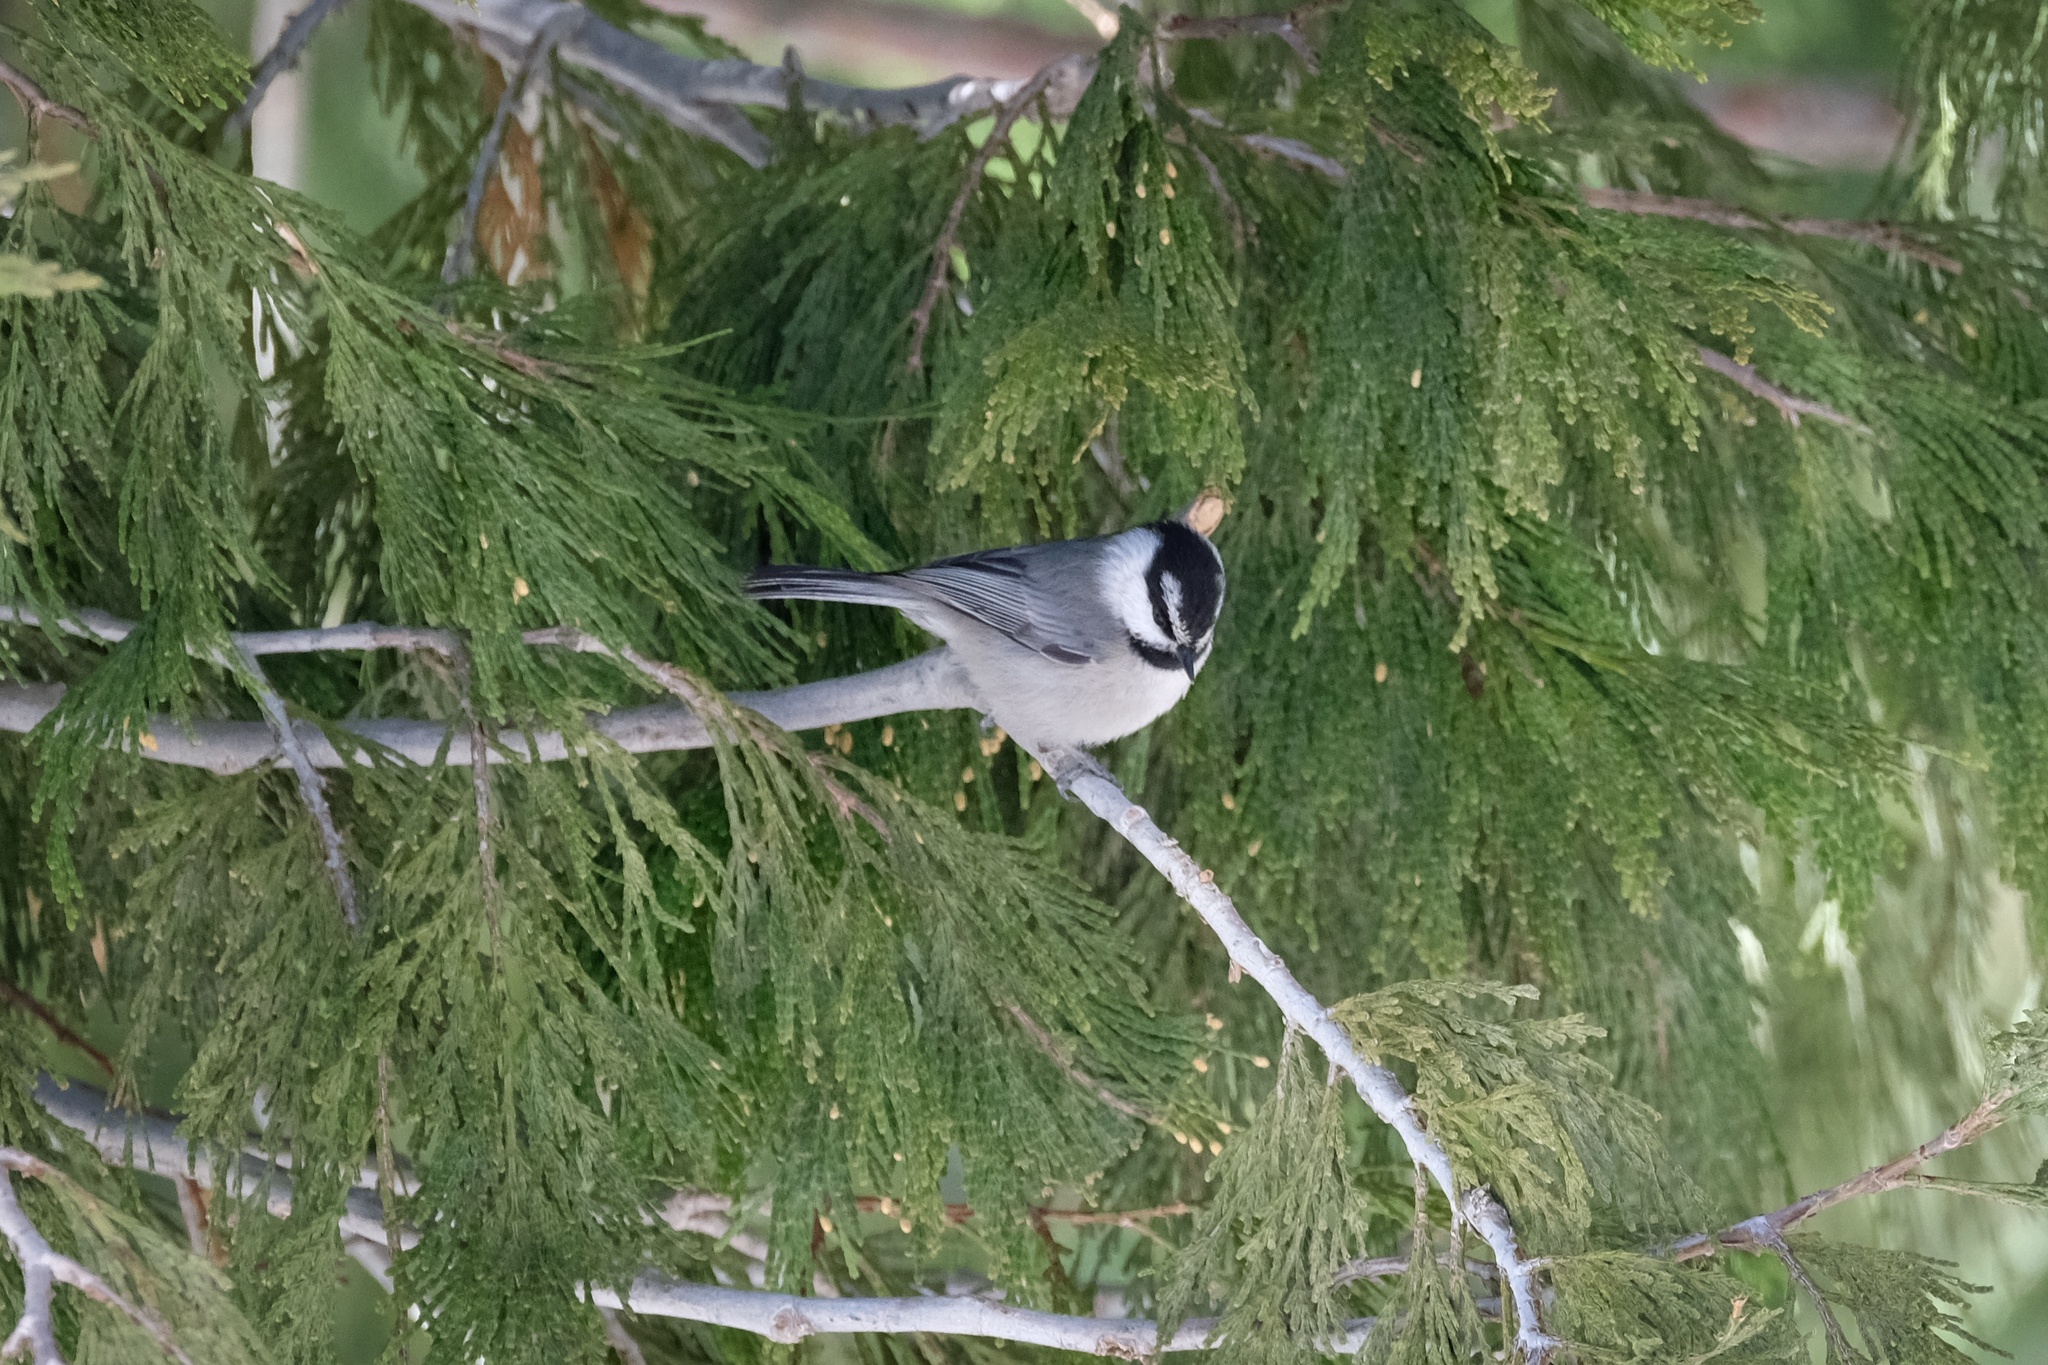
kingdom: Animalia
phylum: Chordata
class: Aves
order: Passeriformes
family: Paridae
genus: Poecile
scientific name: Poecile gambeli
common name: Mountain chickadee
